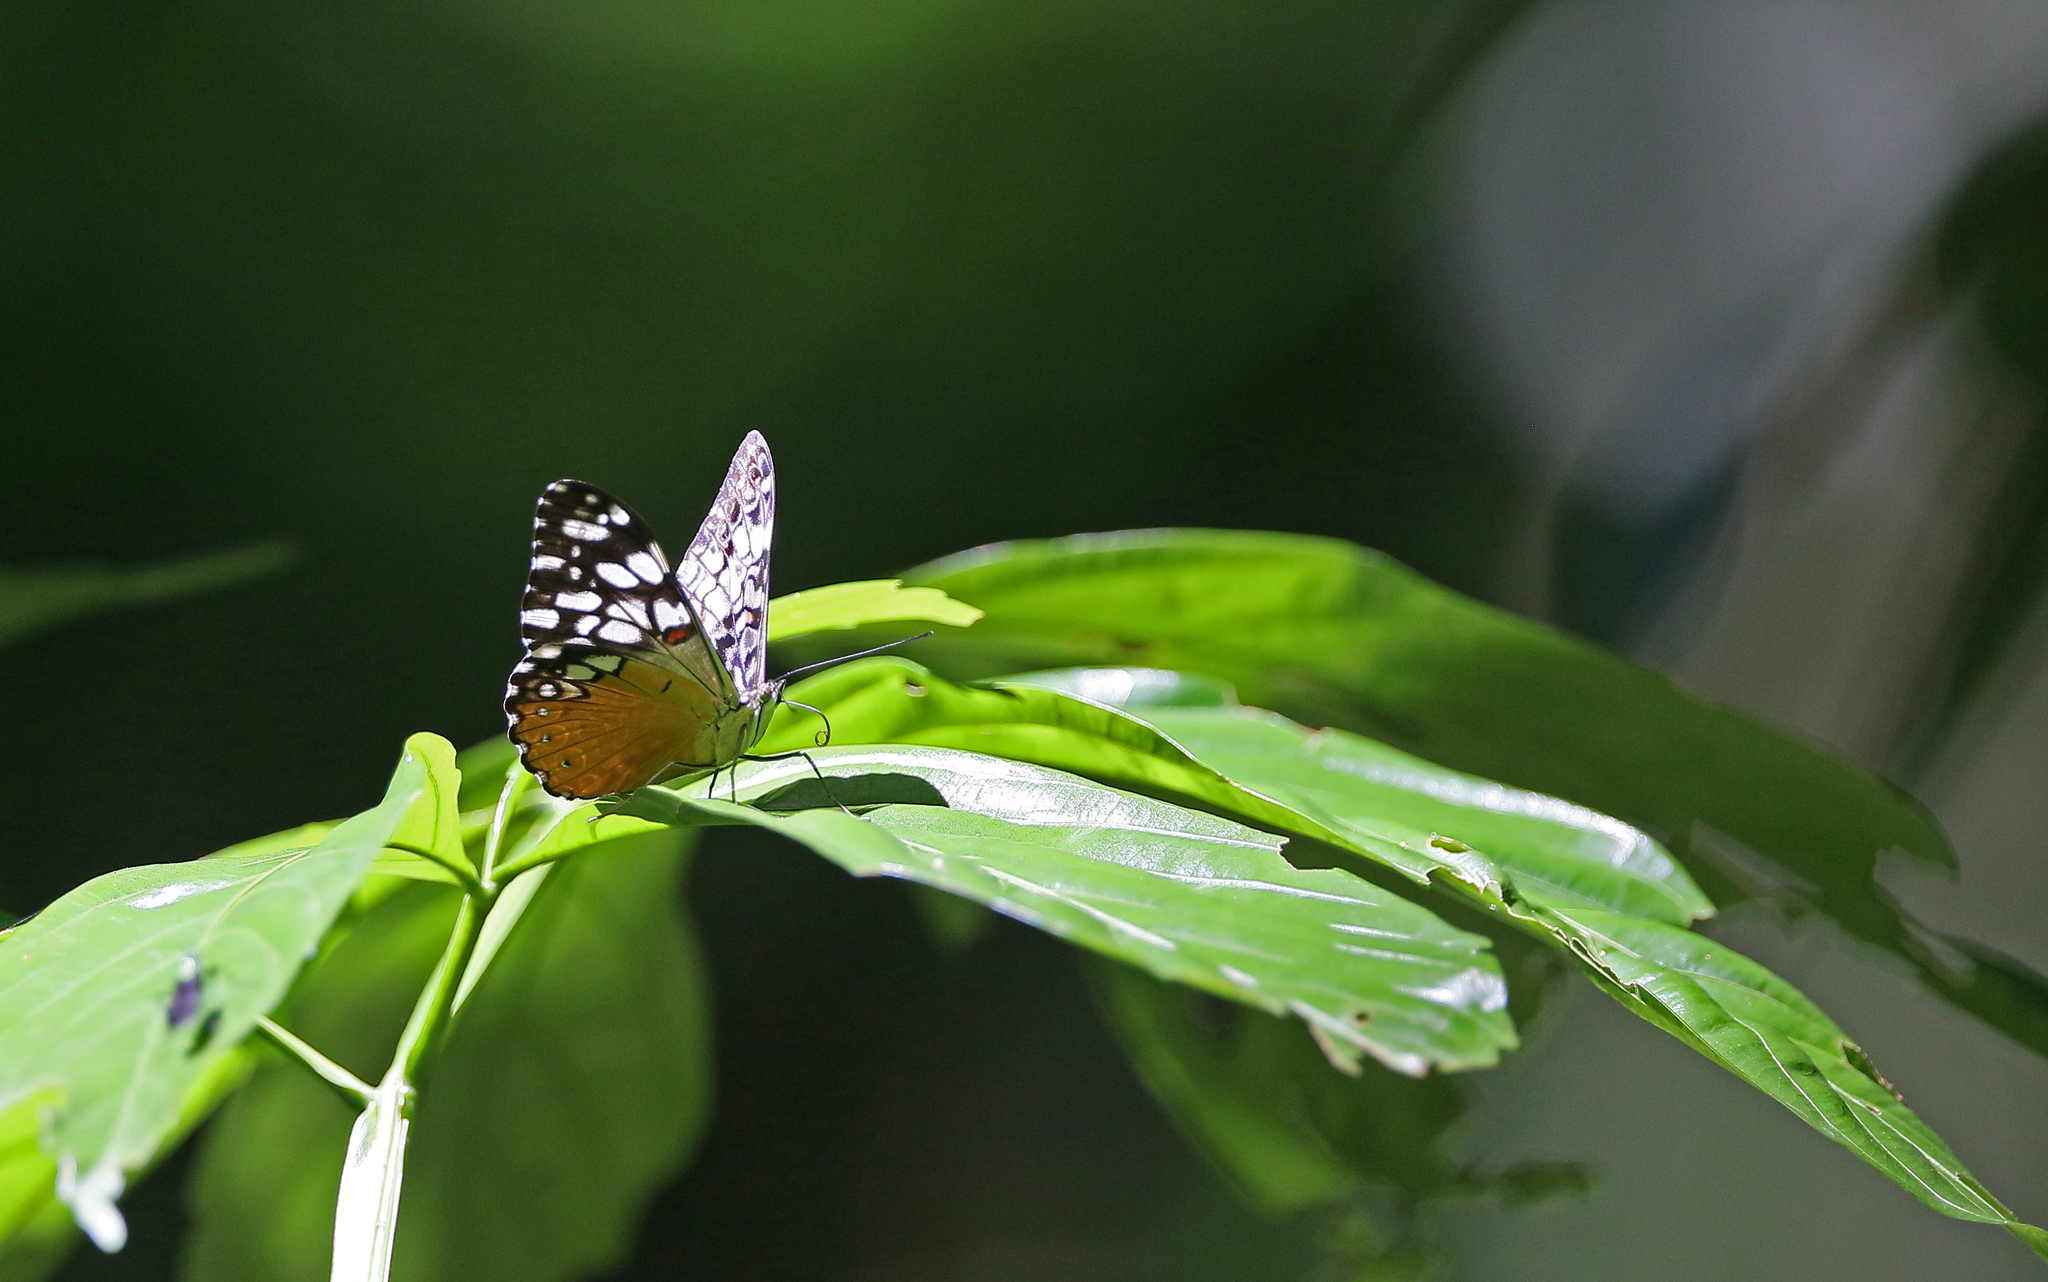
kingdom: Animalia
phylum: Arthropoda
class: Insecta
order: Lepidoptera
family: Nymphalidae
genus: Hamadryas
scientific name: Hamadryas fornax
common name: Orange cracker
